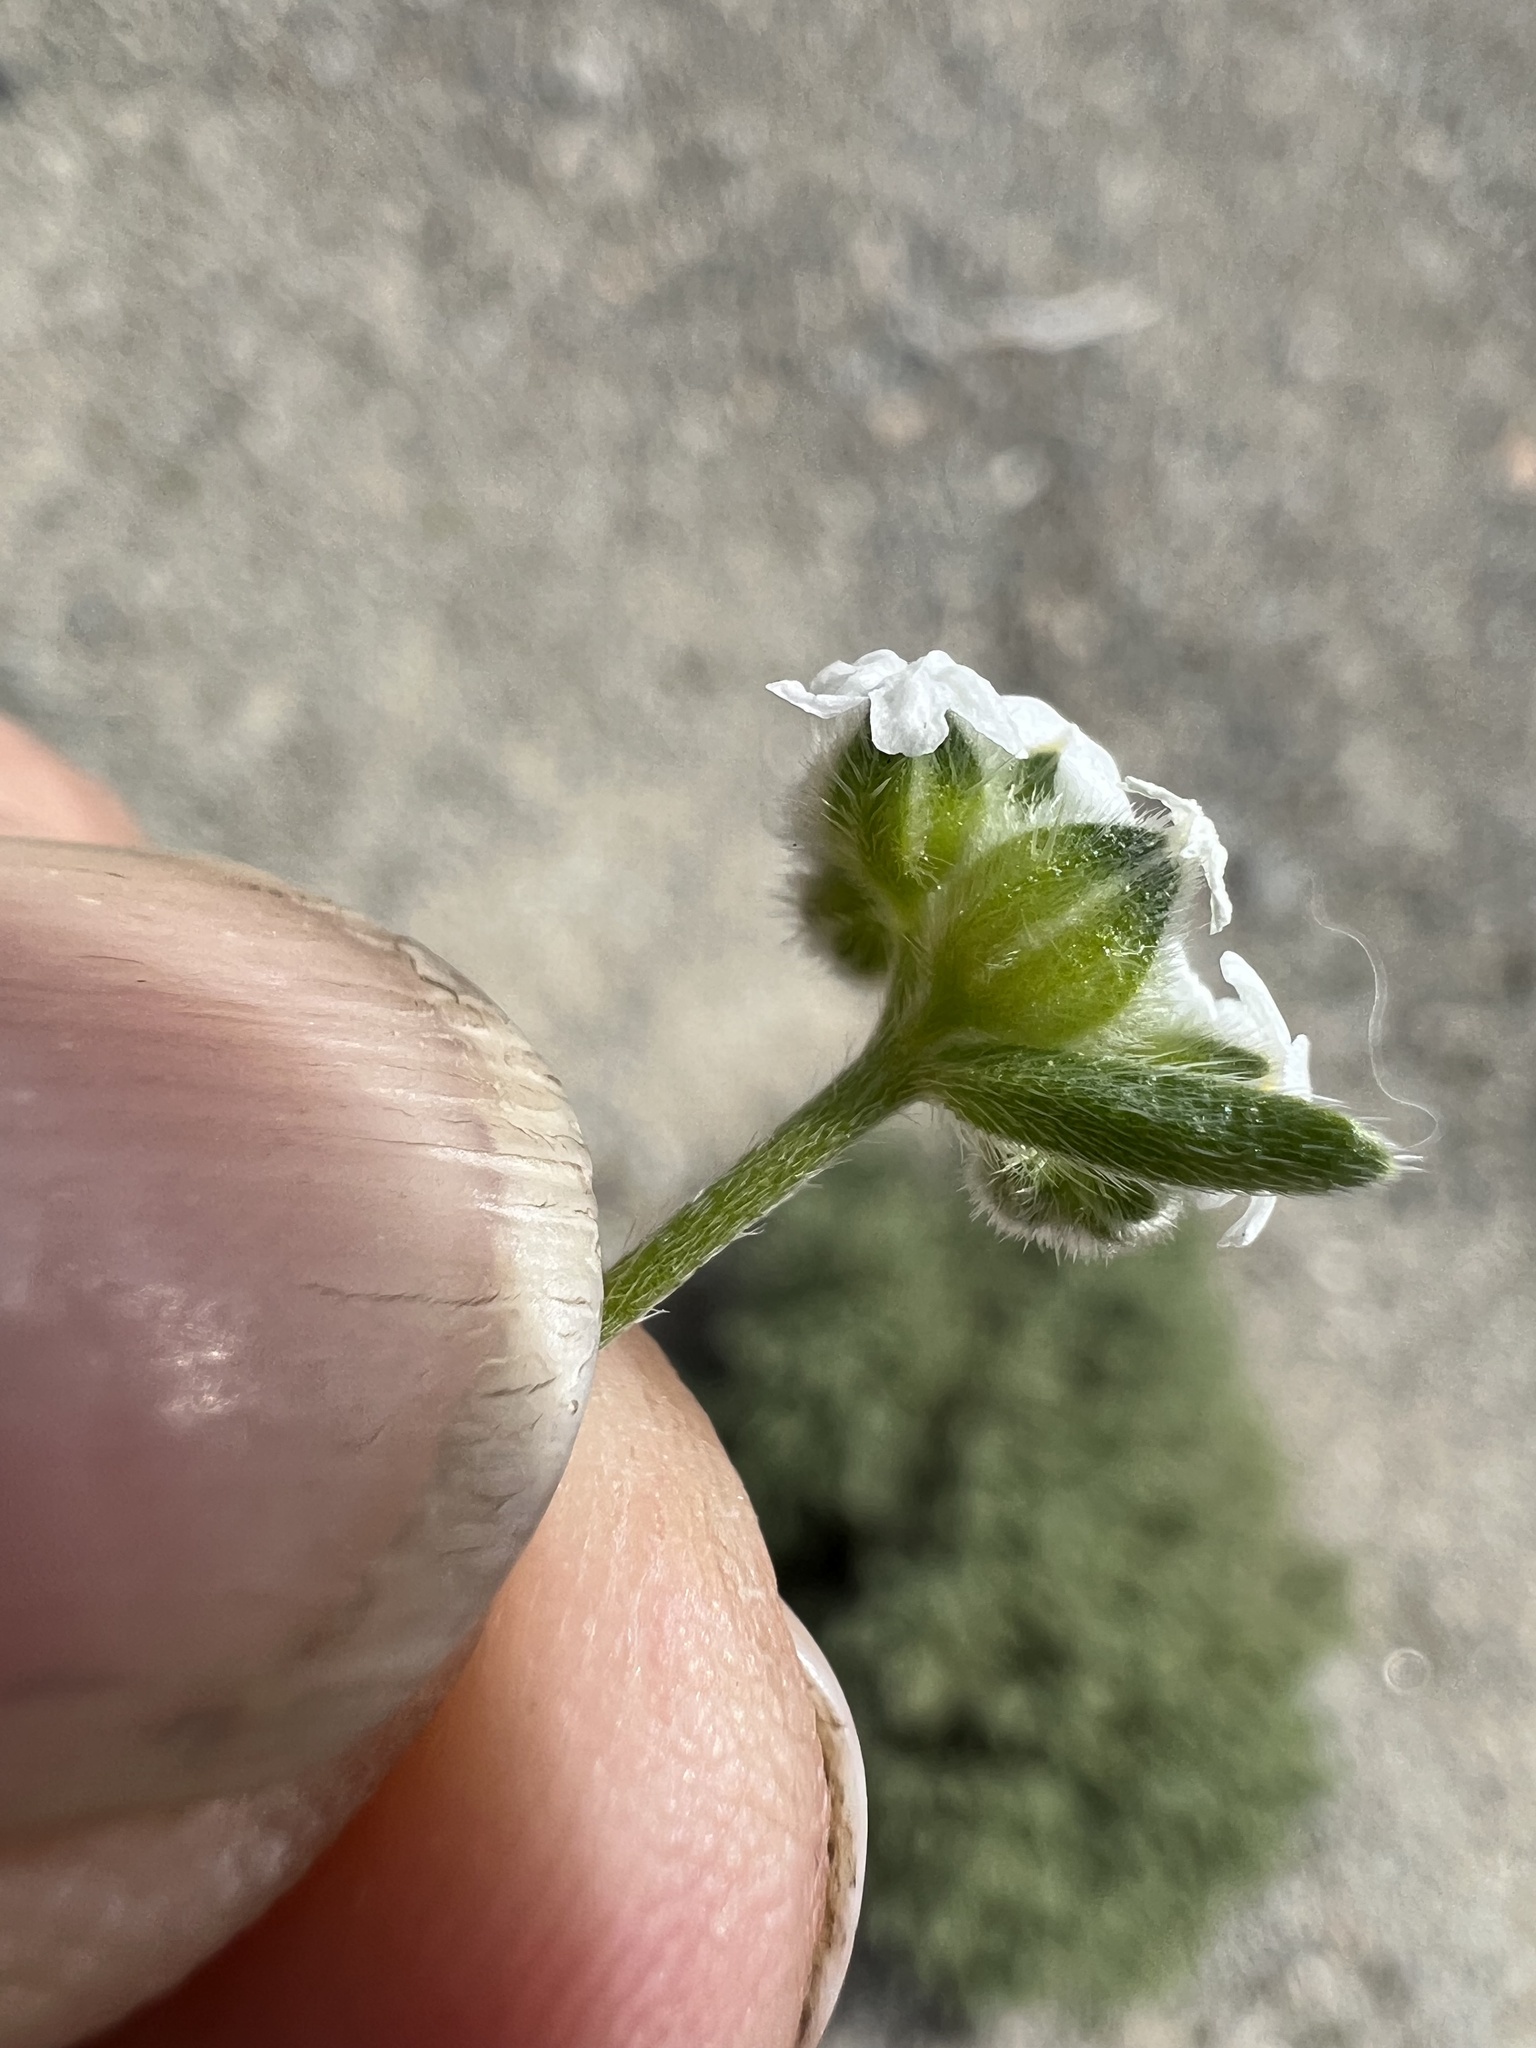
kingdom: Plantae
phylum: Tracheophyta
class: Magnoliopsida
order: Boraginales
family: Boraginaceae
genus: Cryptantha
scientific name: Cryptantha pterocarya
